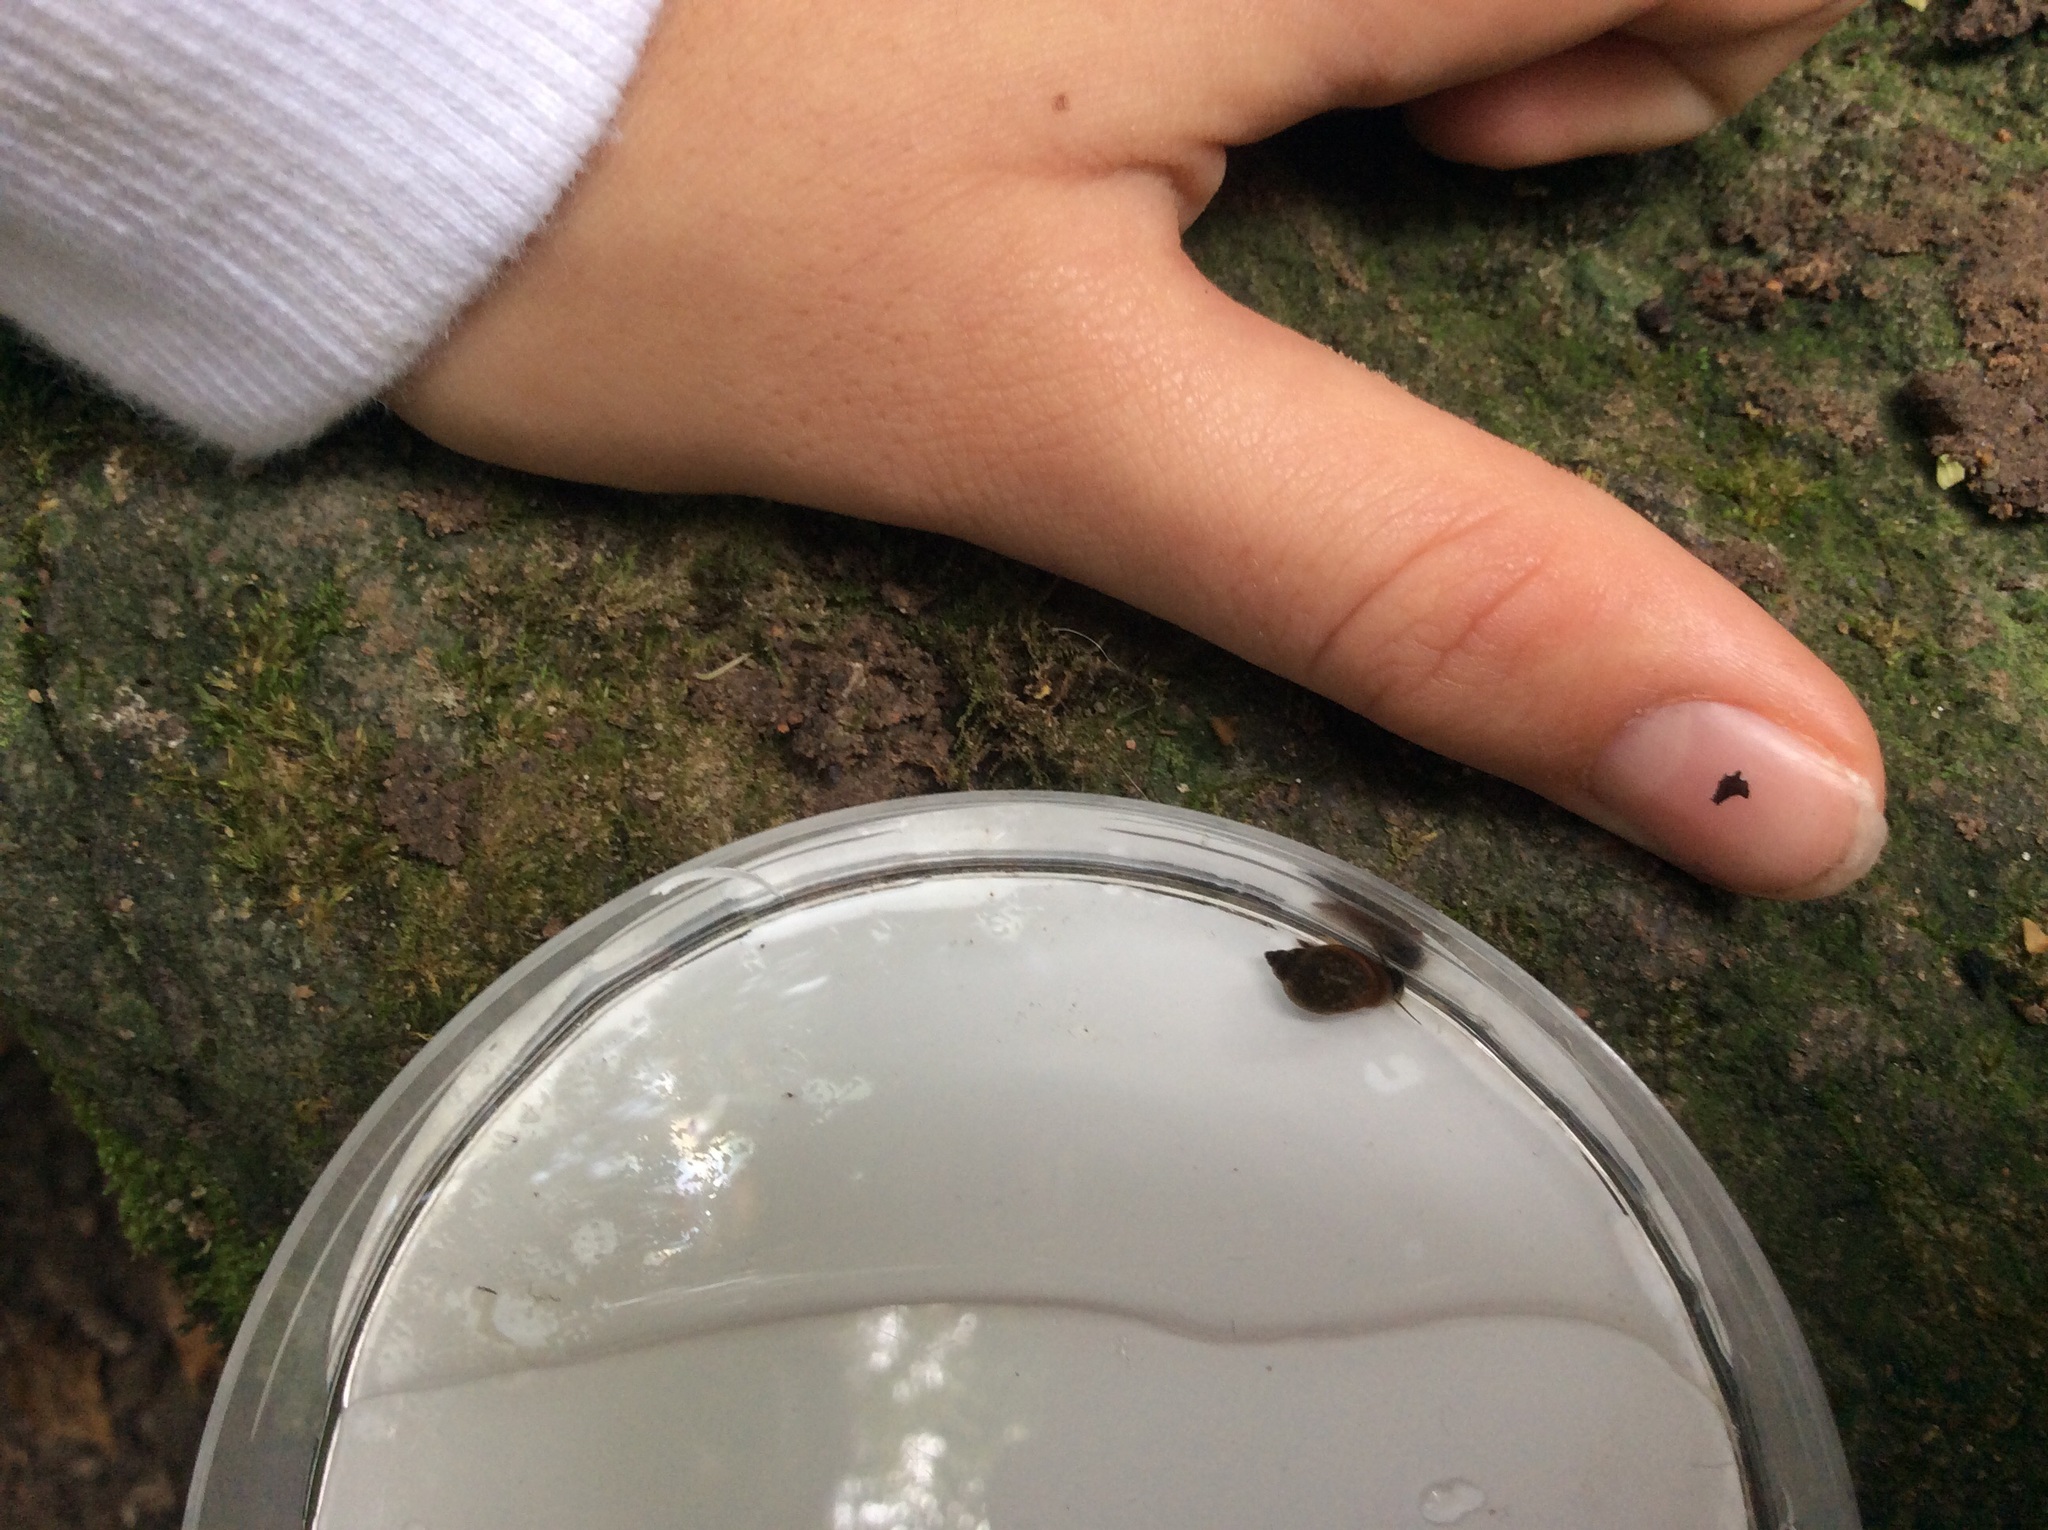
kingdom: Animalia
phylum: Mollusca
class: Gastropoda
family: Physidae
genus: Physella
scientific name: Physella acuta
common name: European physa
